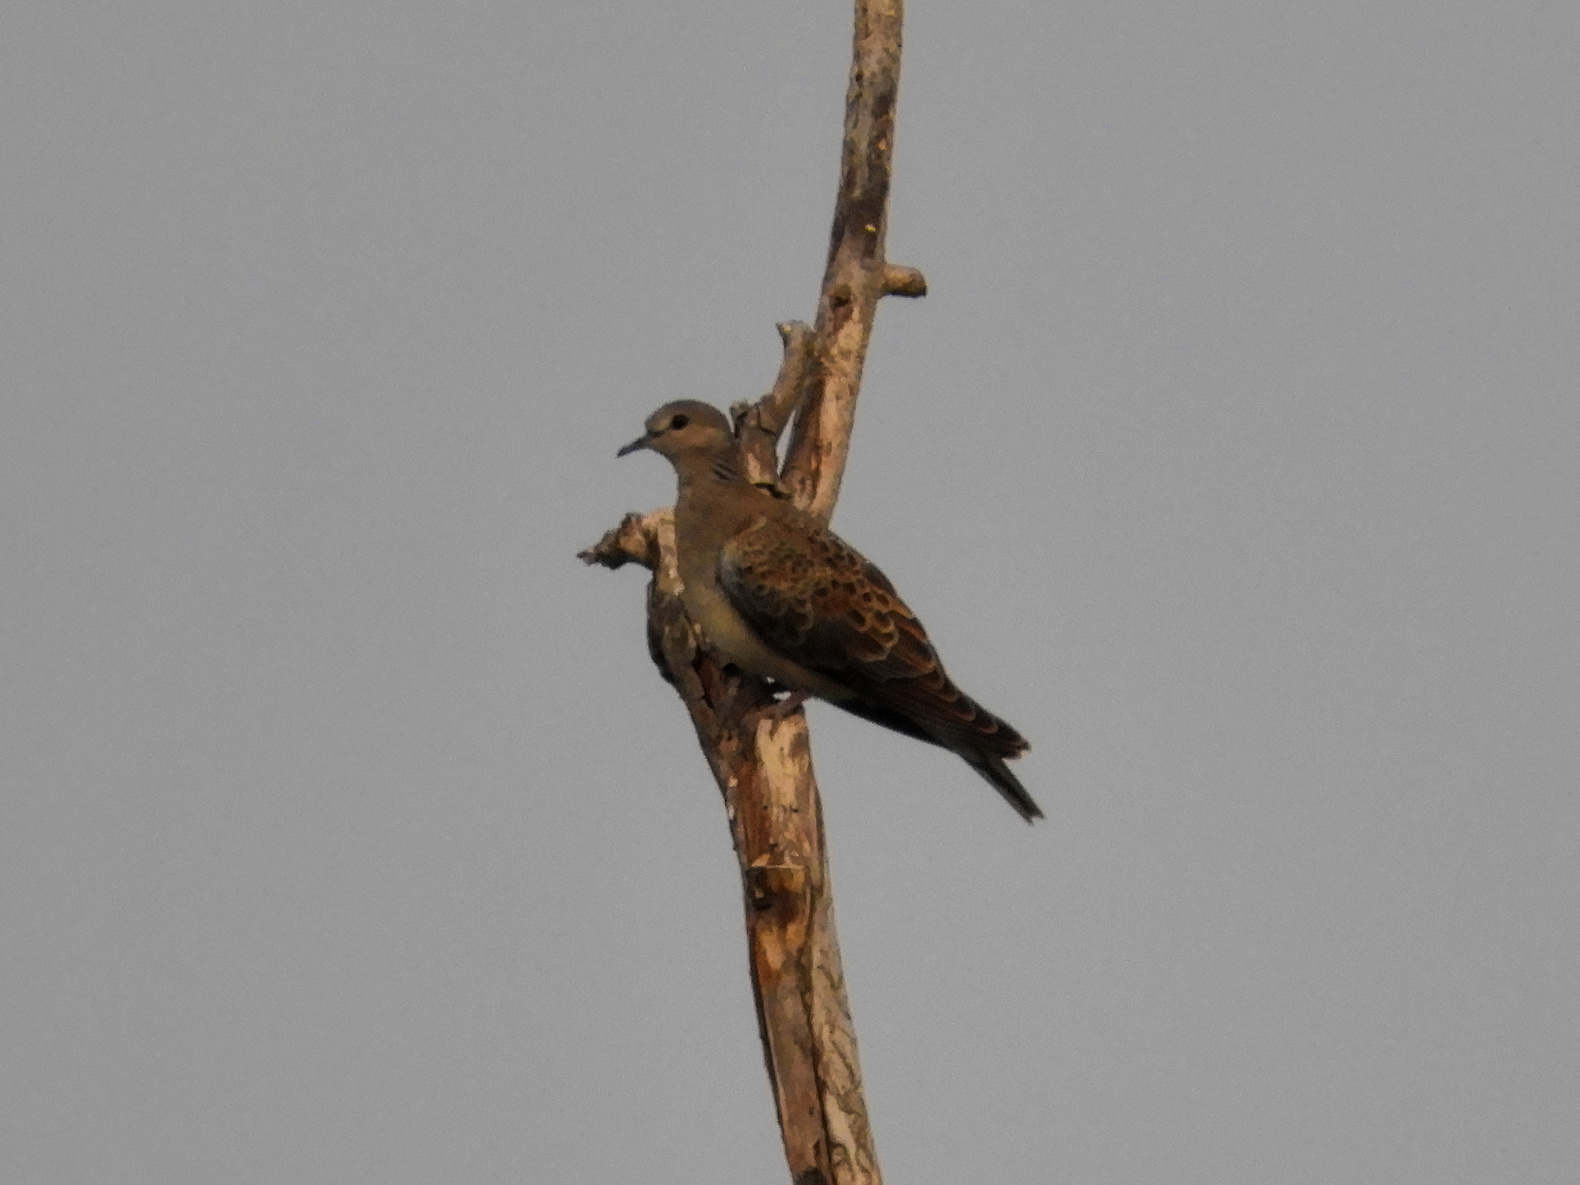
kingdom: Animalia
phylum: Chordata
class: Aves
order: Columbiformes
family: Columbidae
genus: Streptopelia
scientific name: Streptopelia turtur
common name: European turtle dove
